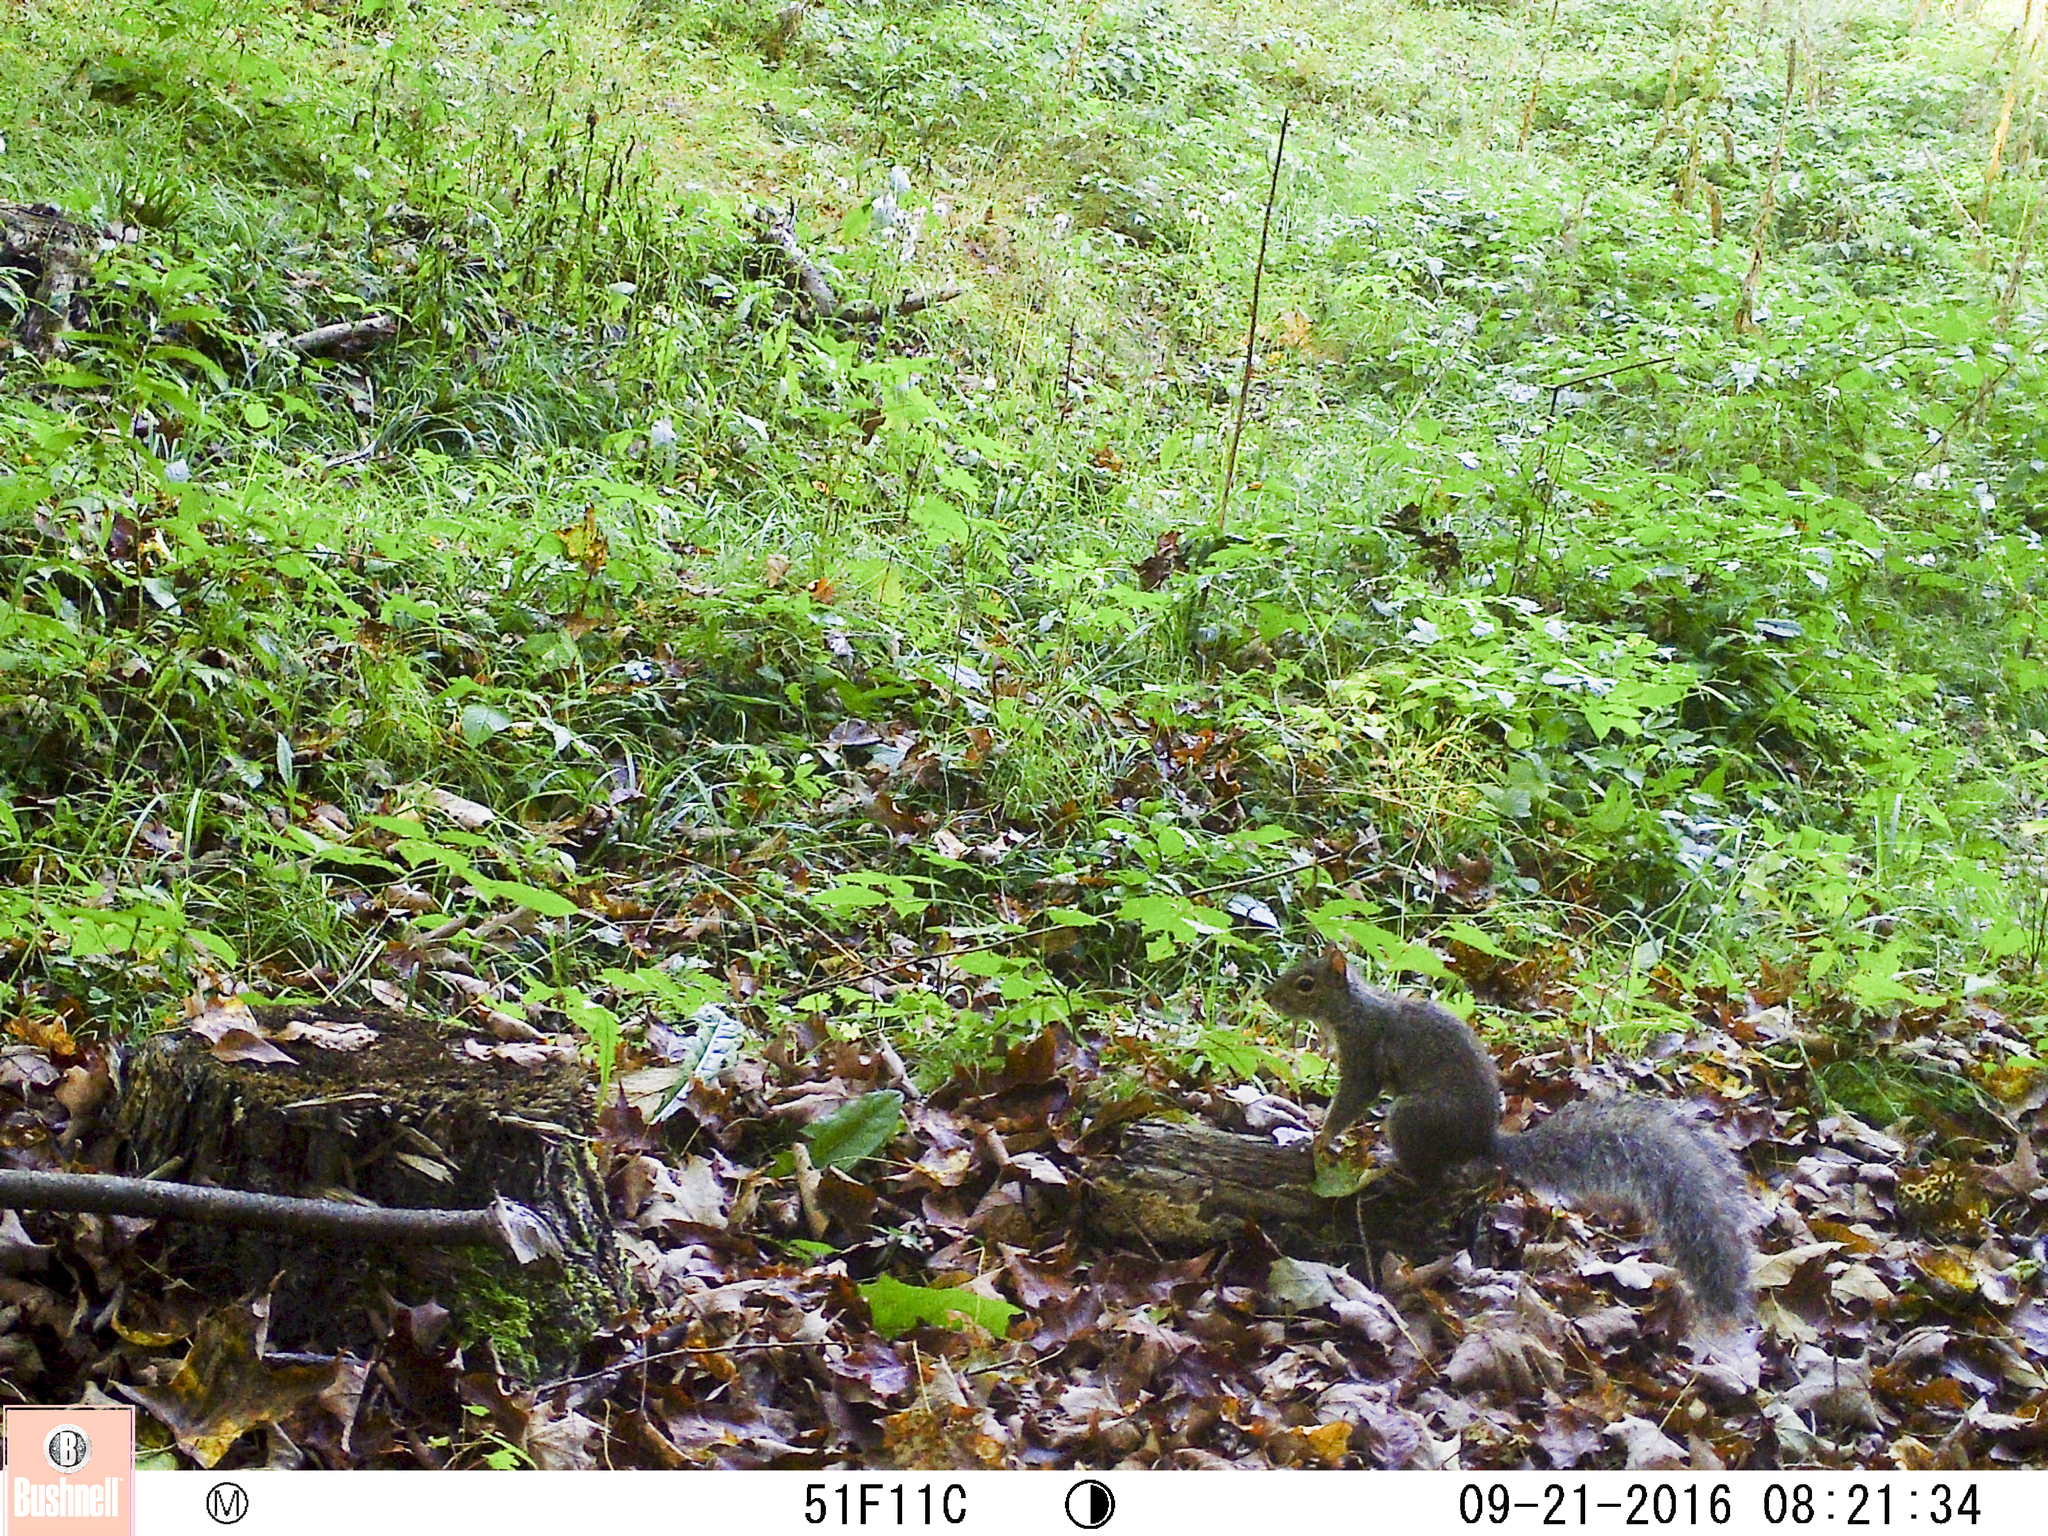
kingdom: Animalia
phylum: Chordata
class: Mammalia
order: Rodentia
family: Sciuridae
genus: Sciurus
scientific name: Sciurus carolinensis
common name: Eastern gray squirrel
